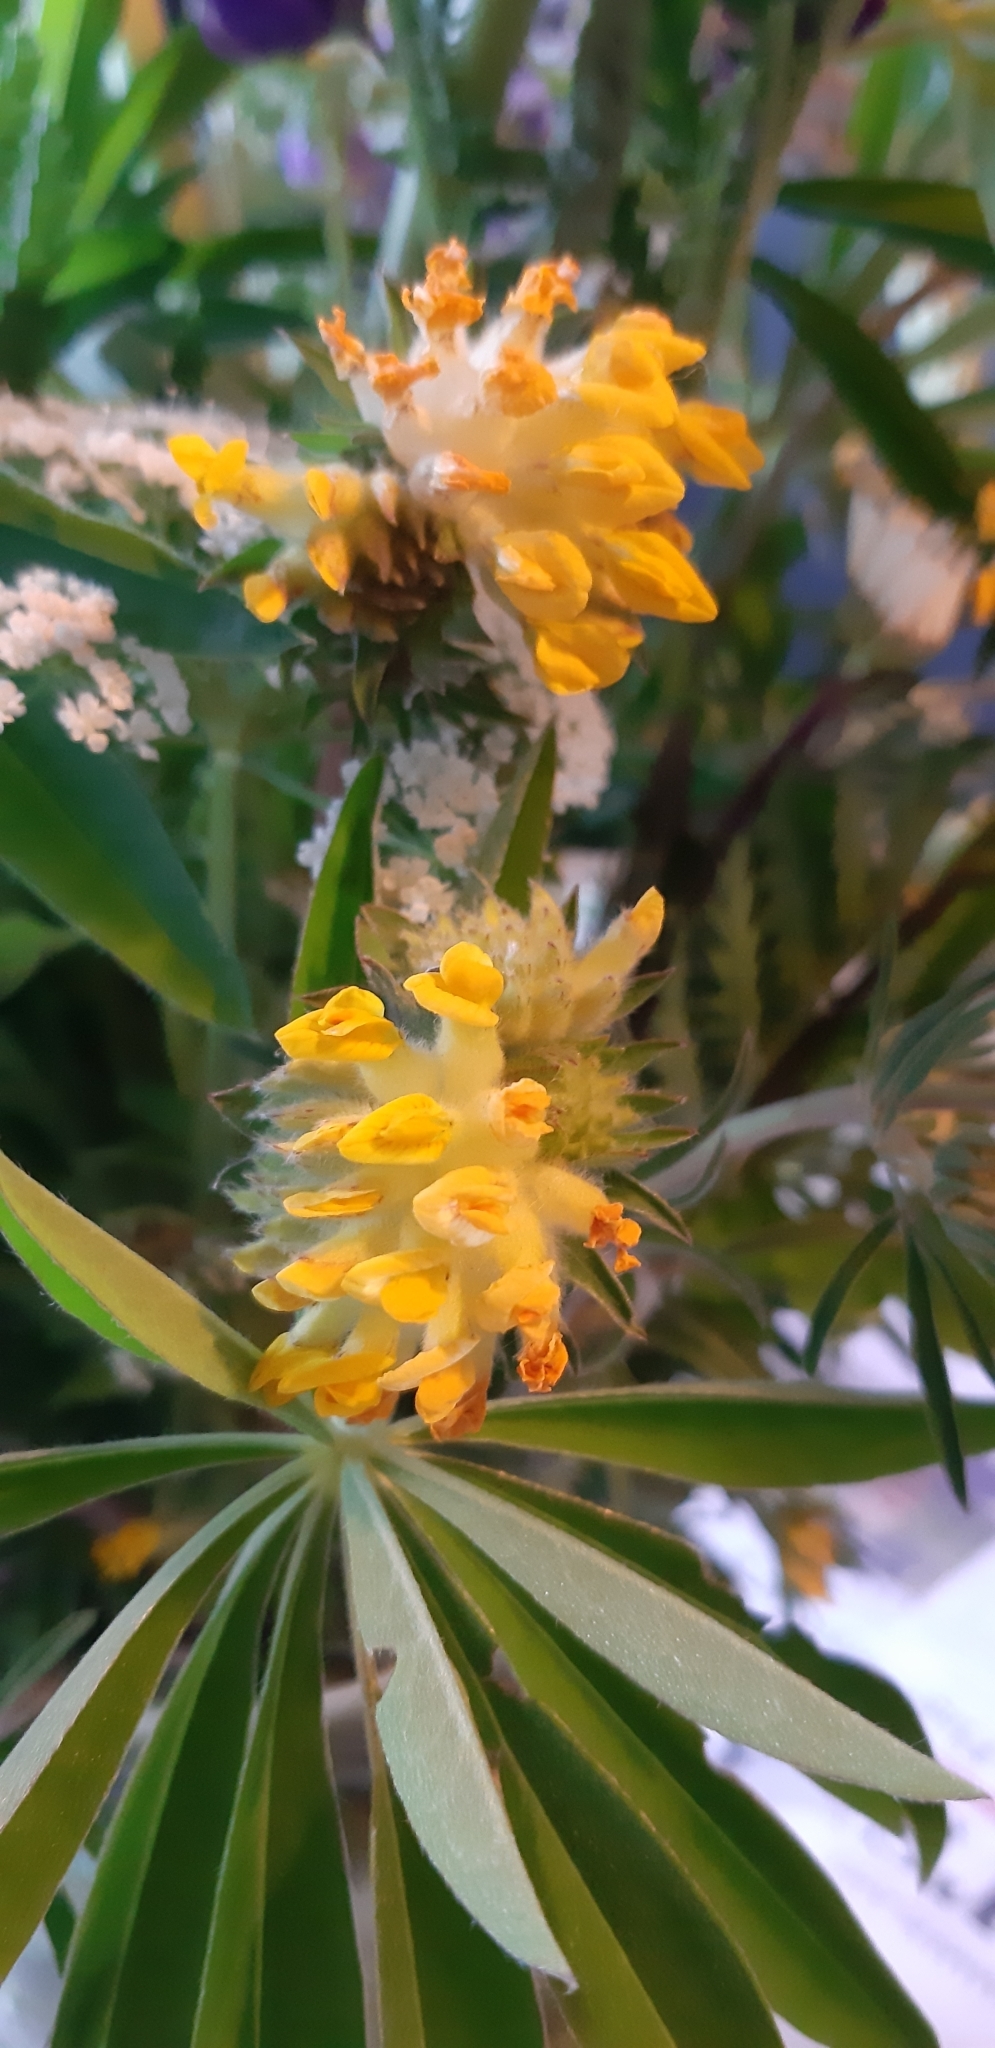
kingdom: Plantae
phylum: Tracheophyta
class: Magnoliopsida
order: Fabales
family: Fabaceae
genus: Anthyllis
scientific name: Anthyllis vulneraria
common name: Kidney vetch
